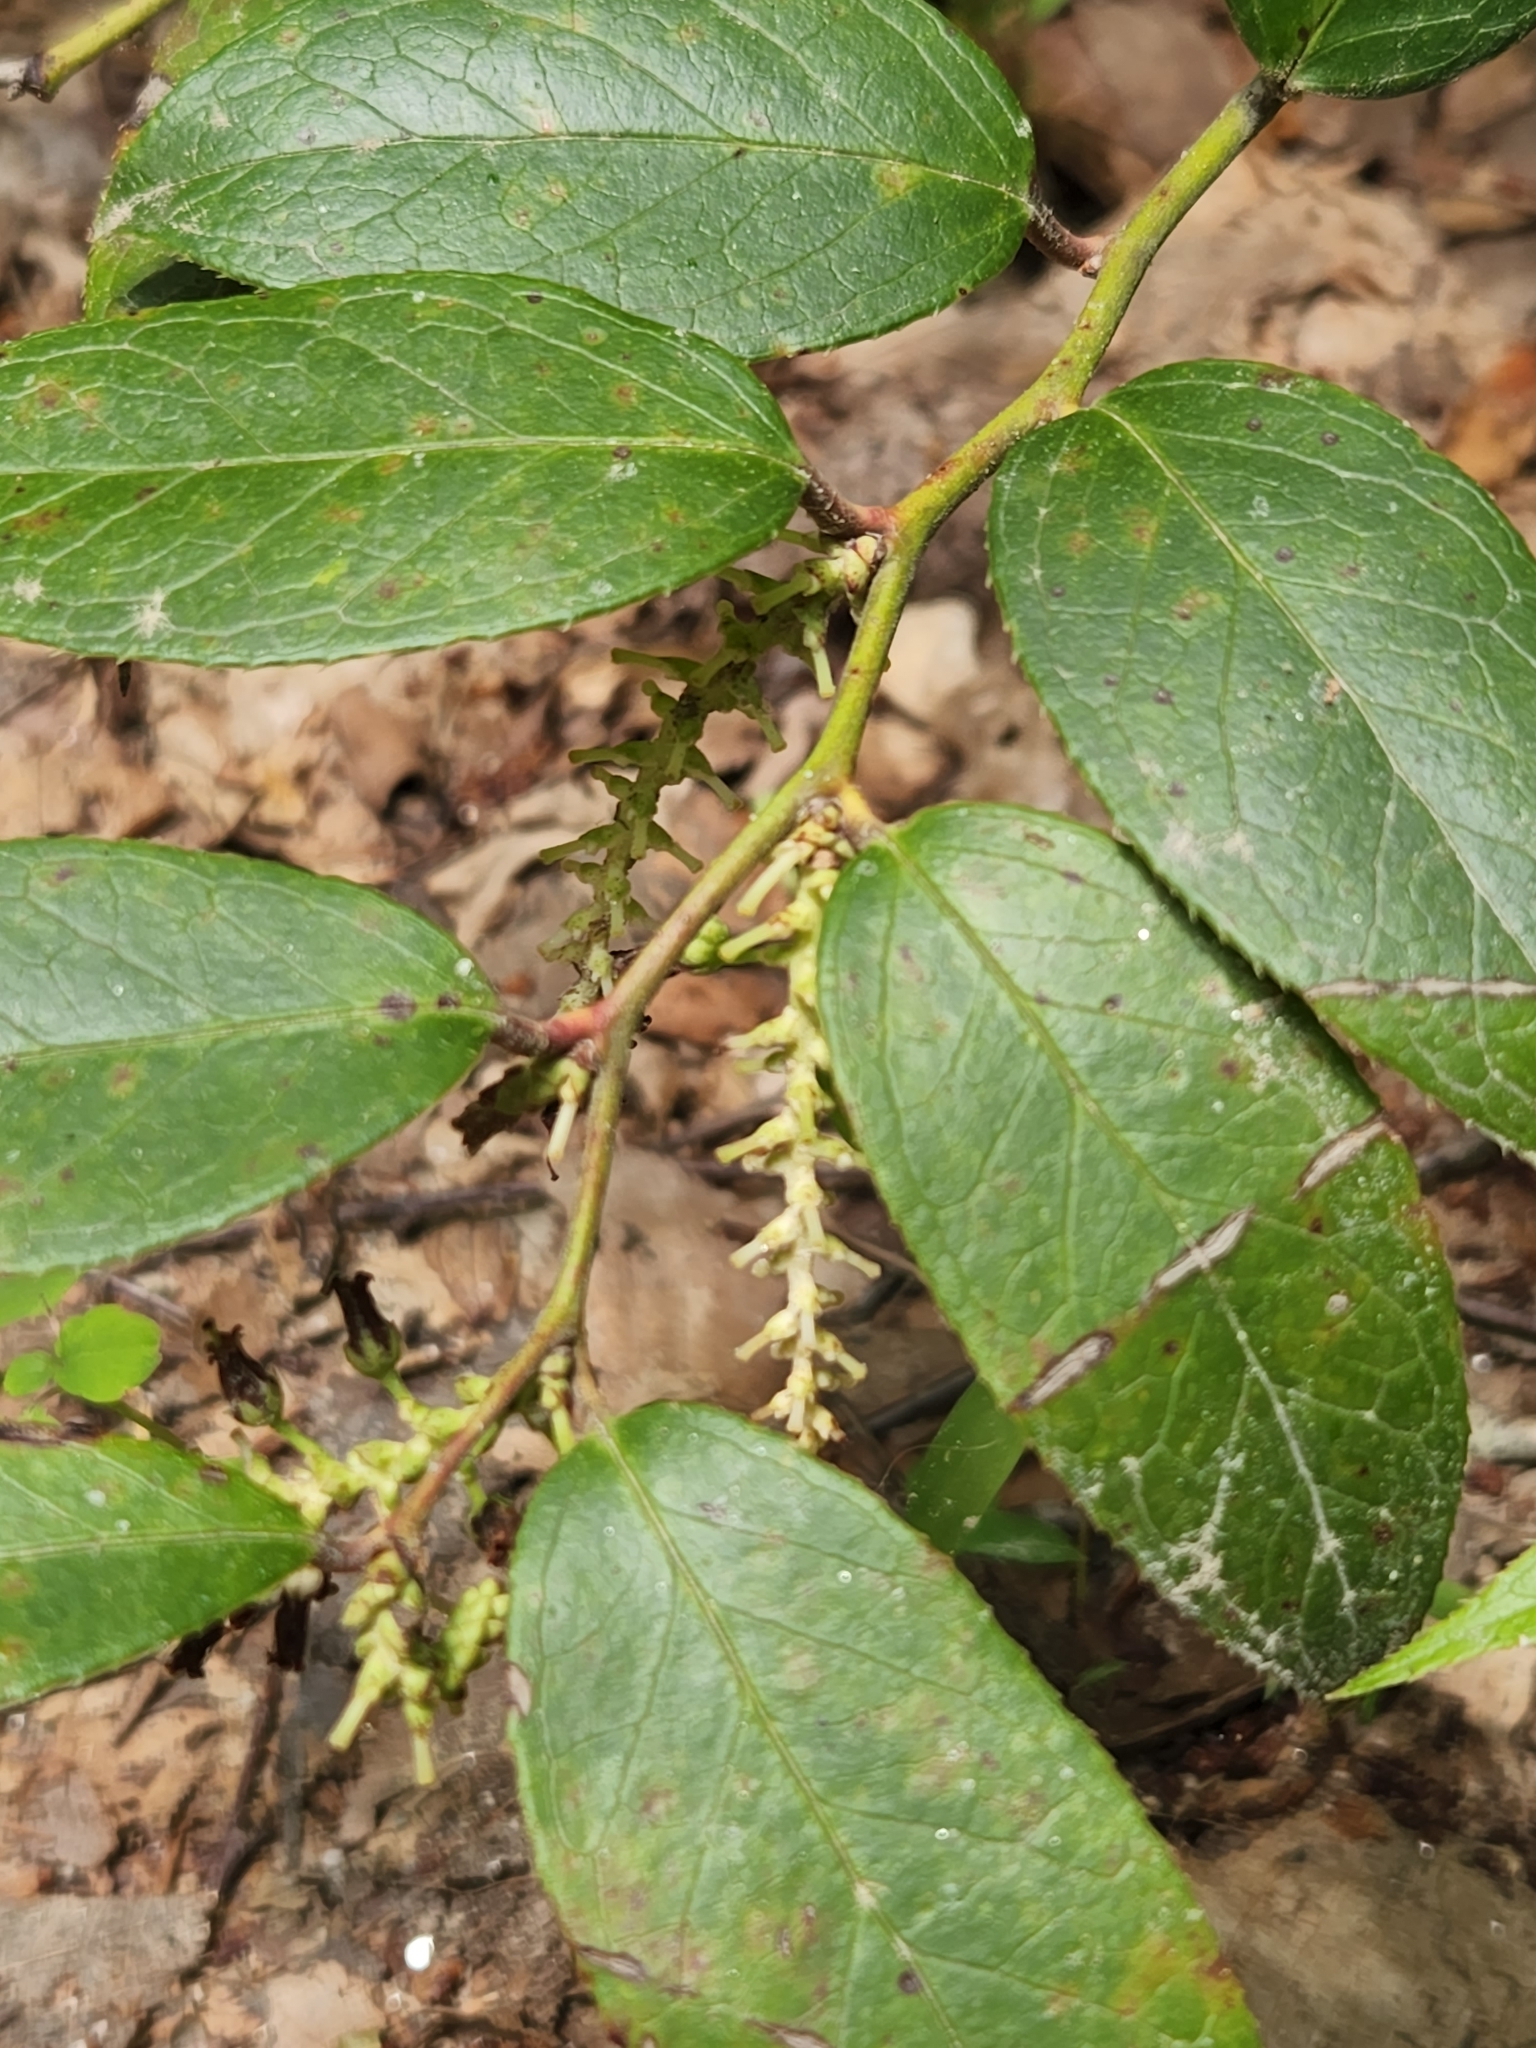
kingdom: Plantae
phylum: Tracheophyta
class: Magnoliopsida
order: Ericales
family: Ericaceae
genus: Leucothoe
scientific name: Leucothoe fontanesiana
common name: Fetterbush
